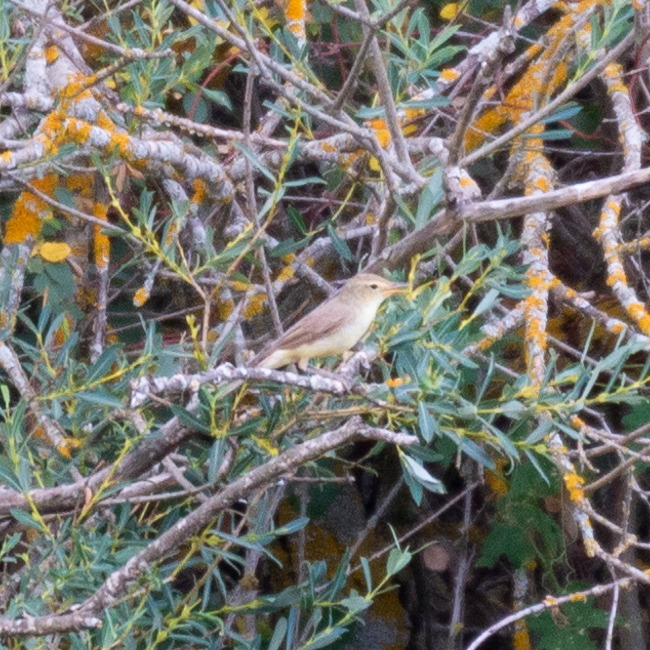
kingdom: Animalia
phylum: Chordata
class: Aves
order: Passeriformes
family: Acrocephalidae
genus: Hippolais
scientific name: Hippolais polyglotta
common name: Melodious warbler
